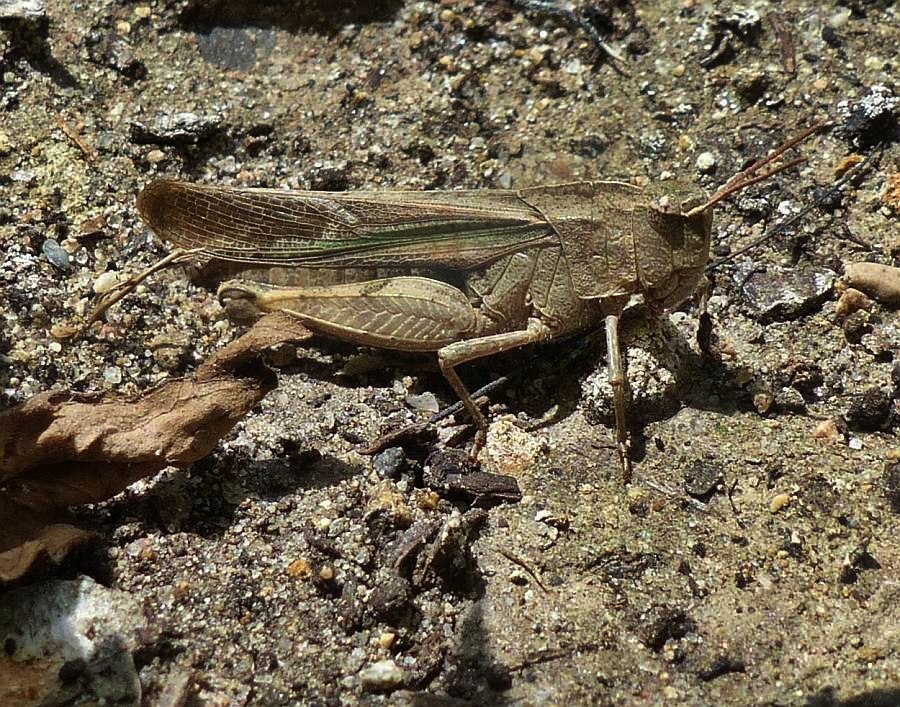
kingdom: Animalia
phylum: Arthropoda
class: Insecta
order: Orthoptera
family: Acrididae
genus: Chortophaga
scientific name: Chortophaga viridifasciata
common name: Green-striped grasshopper
